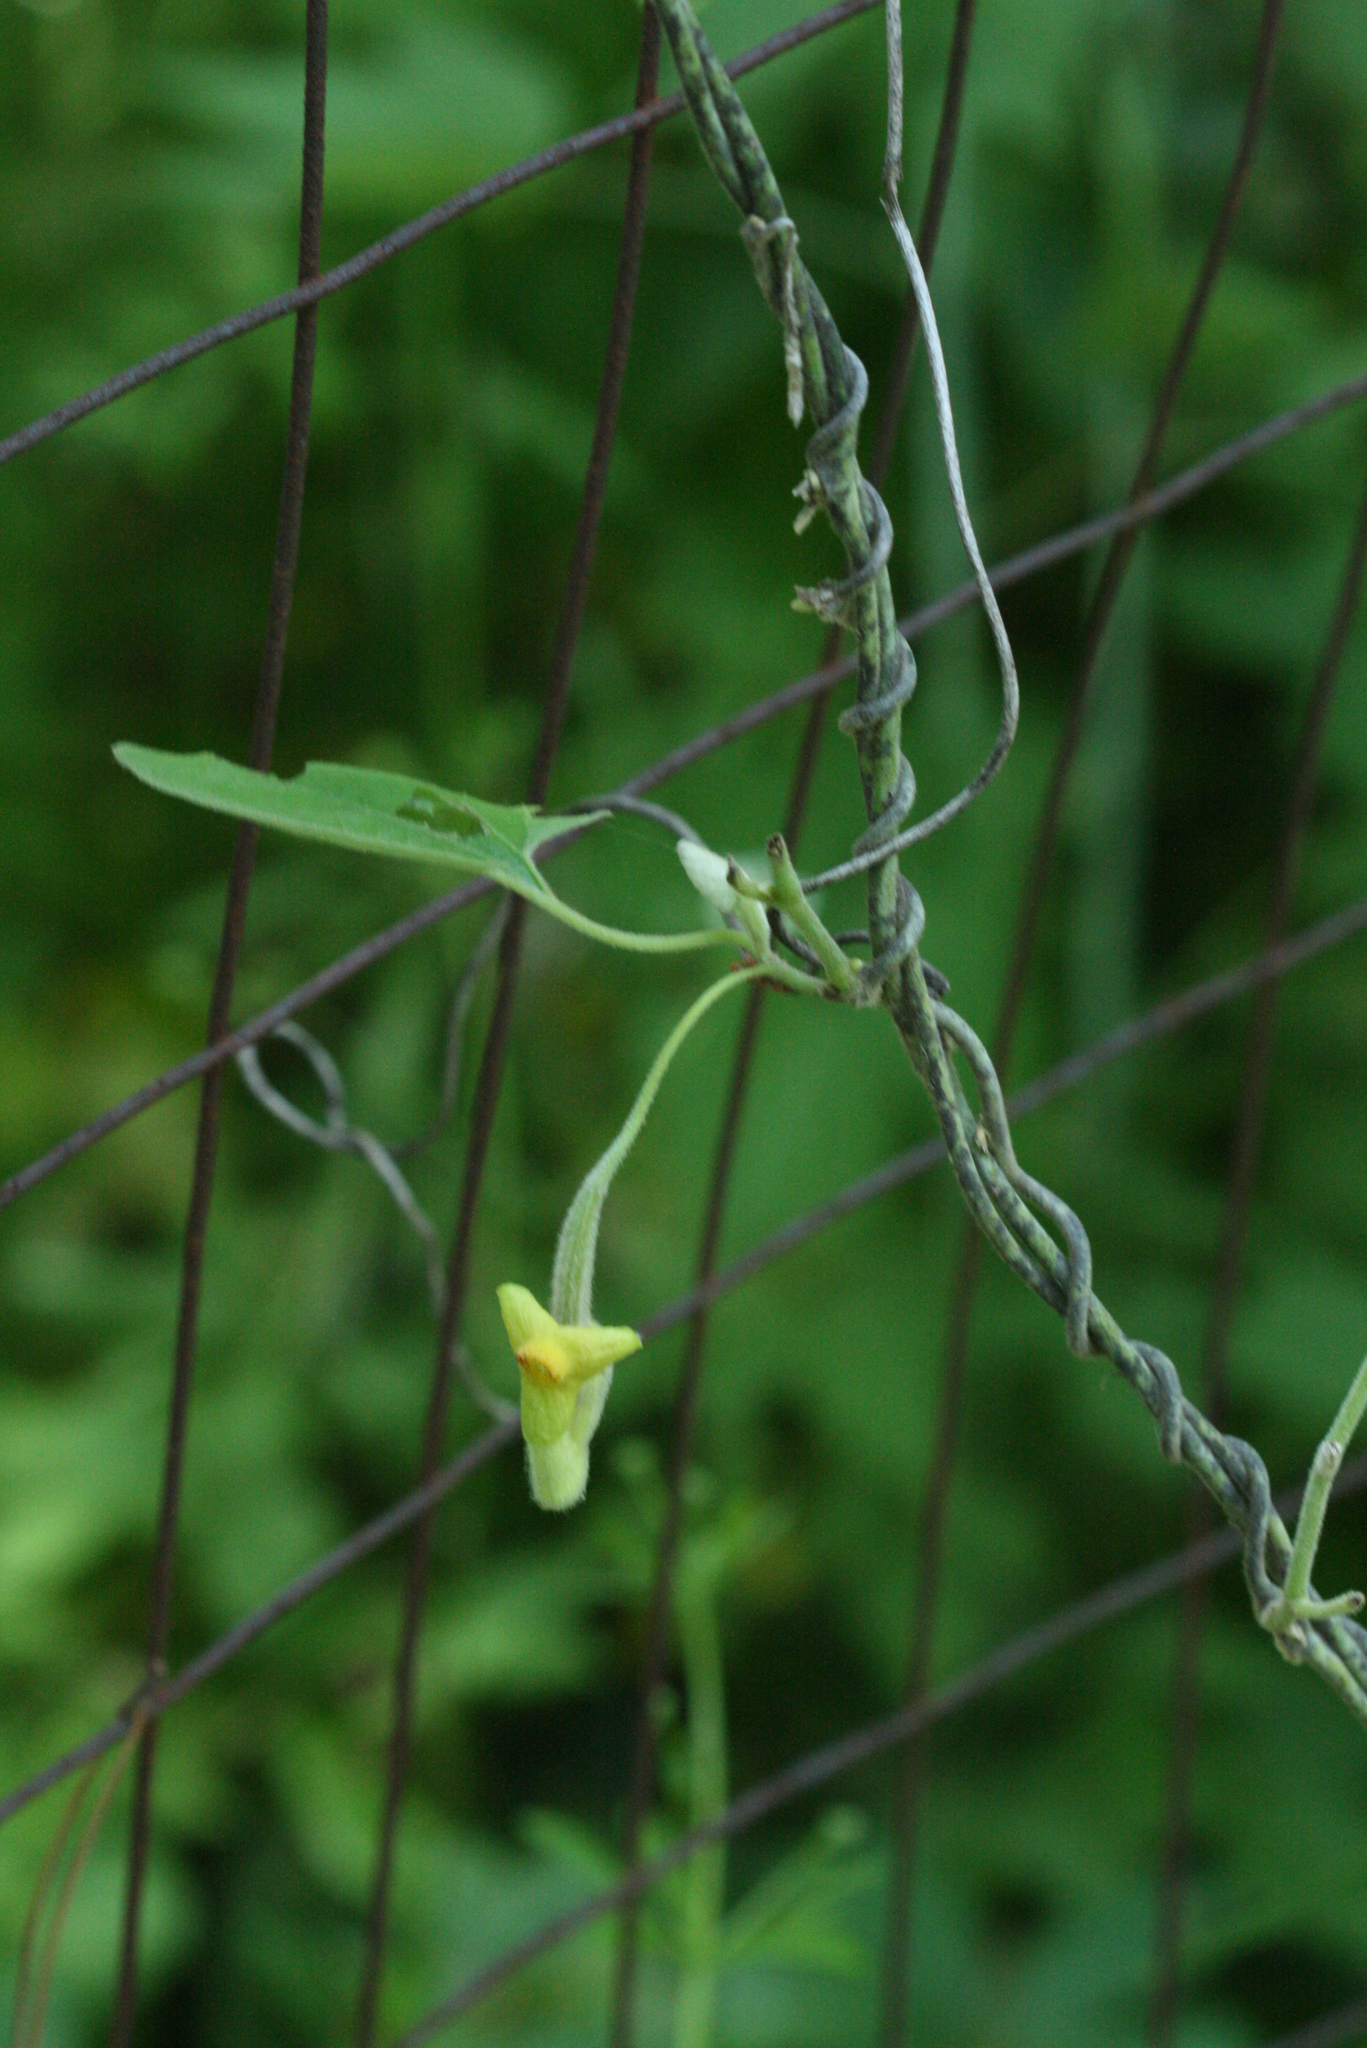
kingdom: Plantae
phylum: Tracheophyta
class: Magnoliopsida
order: Piperales
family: Aristolochiaceae
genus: Isotrema
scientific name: Isotrema tomentosum
